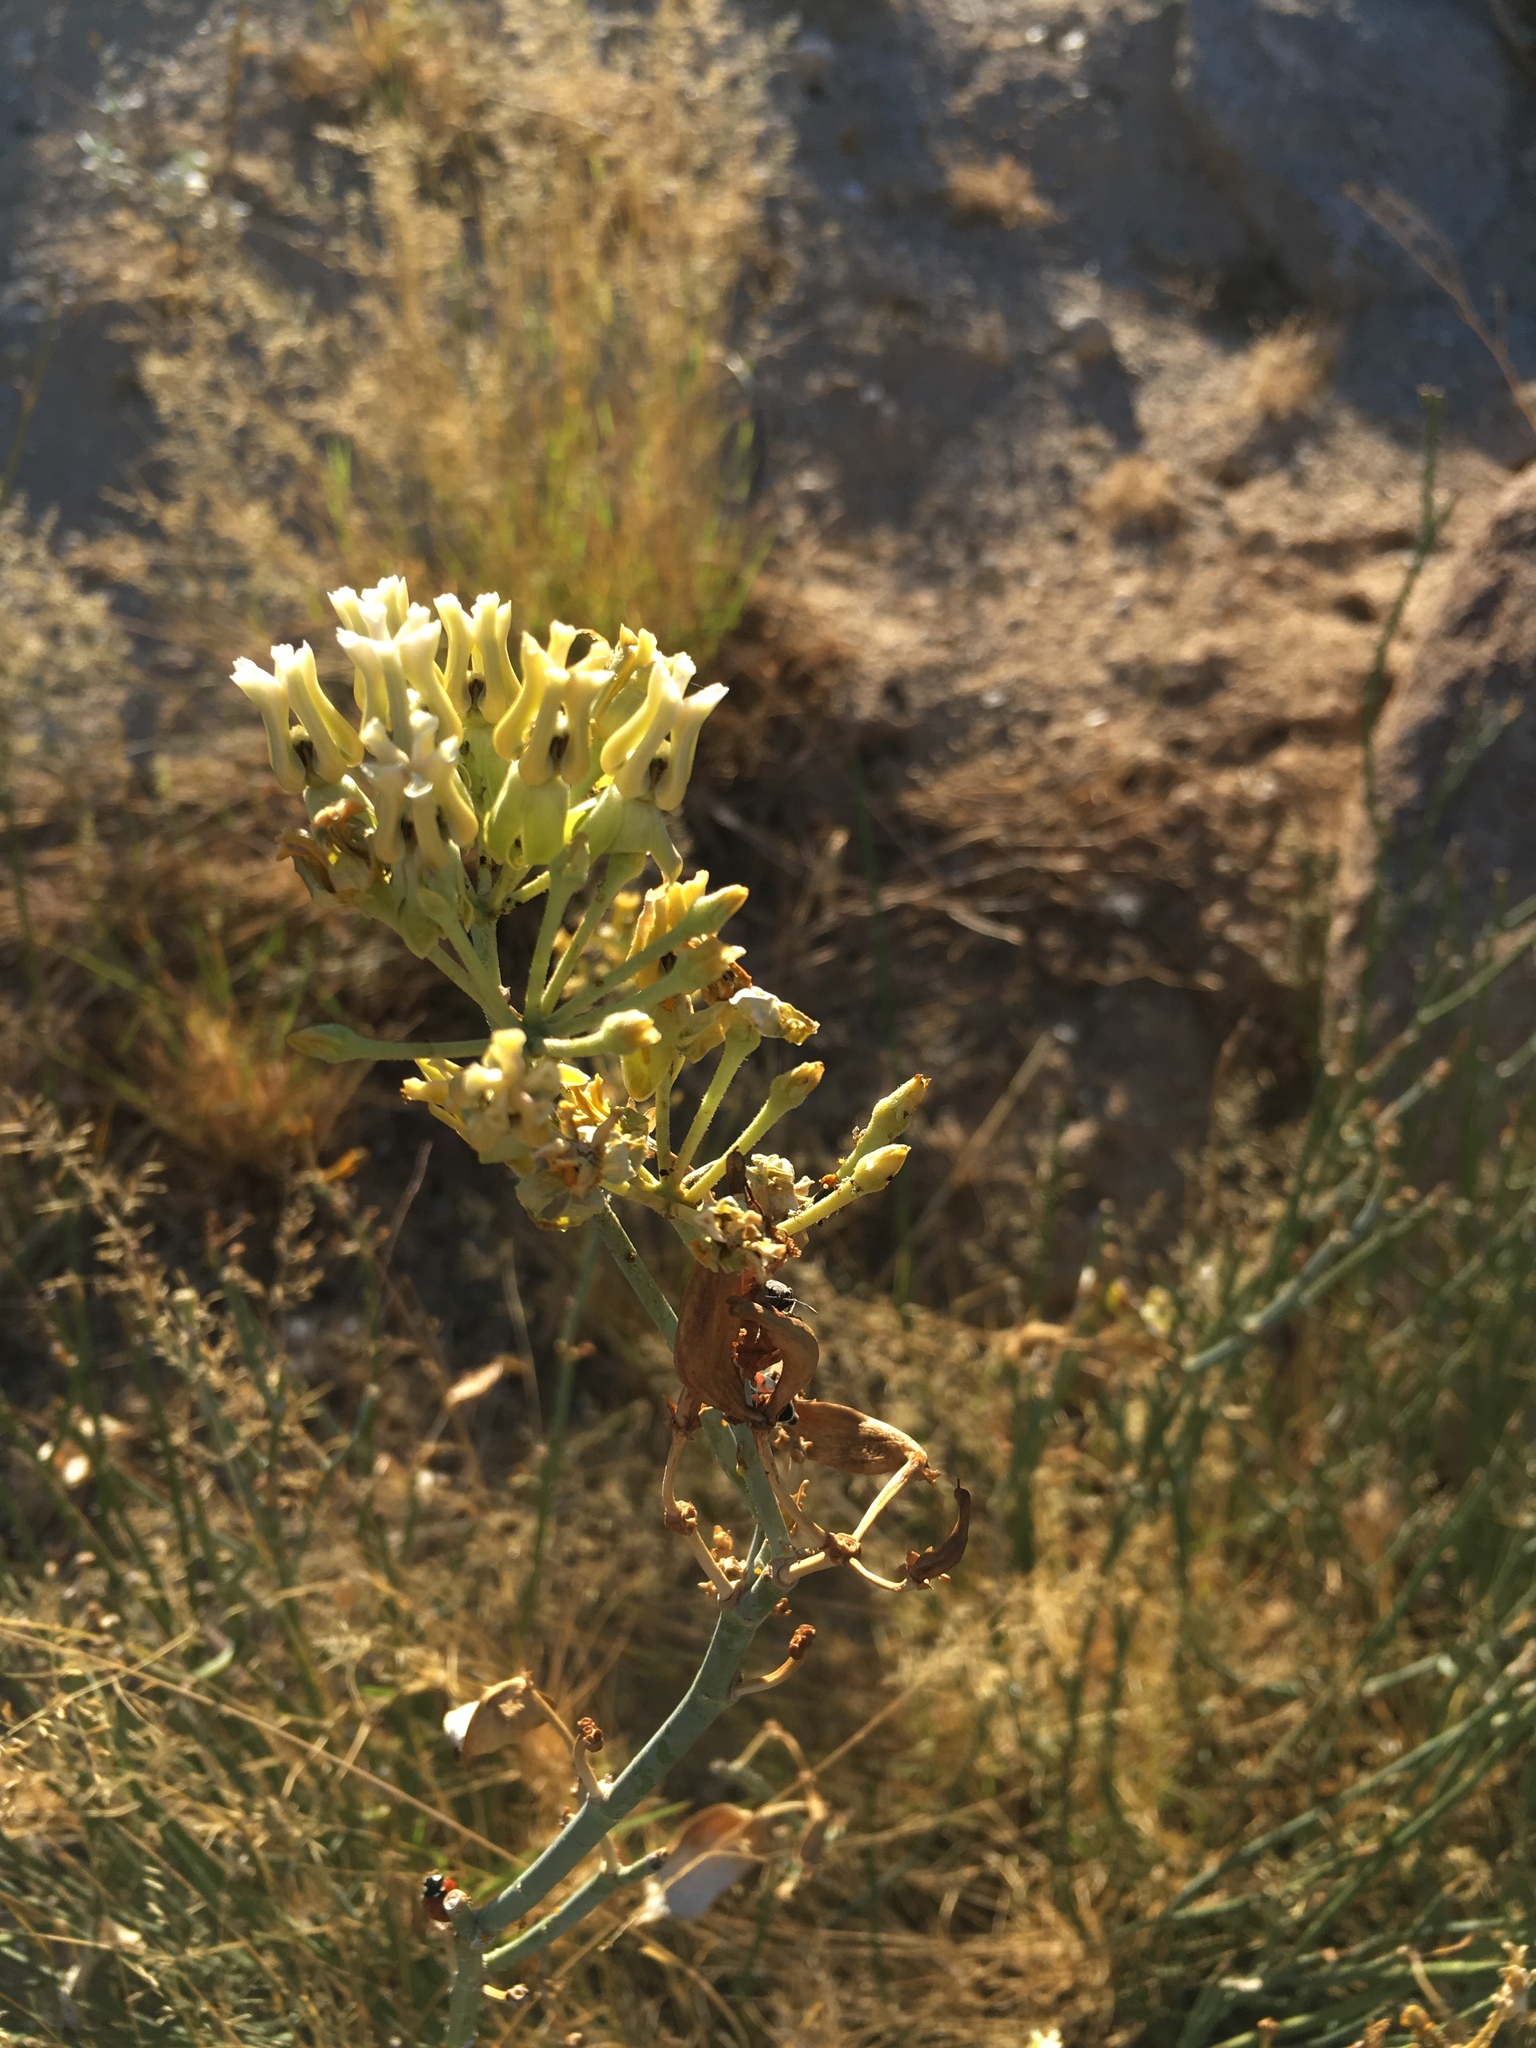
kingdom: Plantae
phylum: Tracheophyta
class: Magnoliopsida
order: Gentianales
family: Apocynaceae
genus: Asclepias
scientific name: Asclepias subulata
